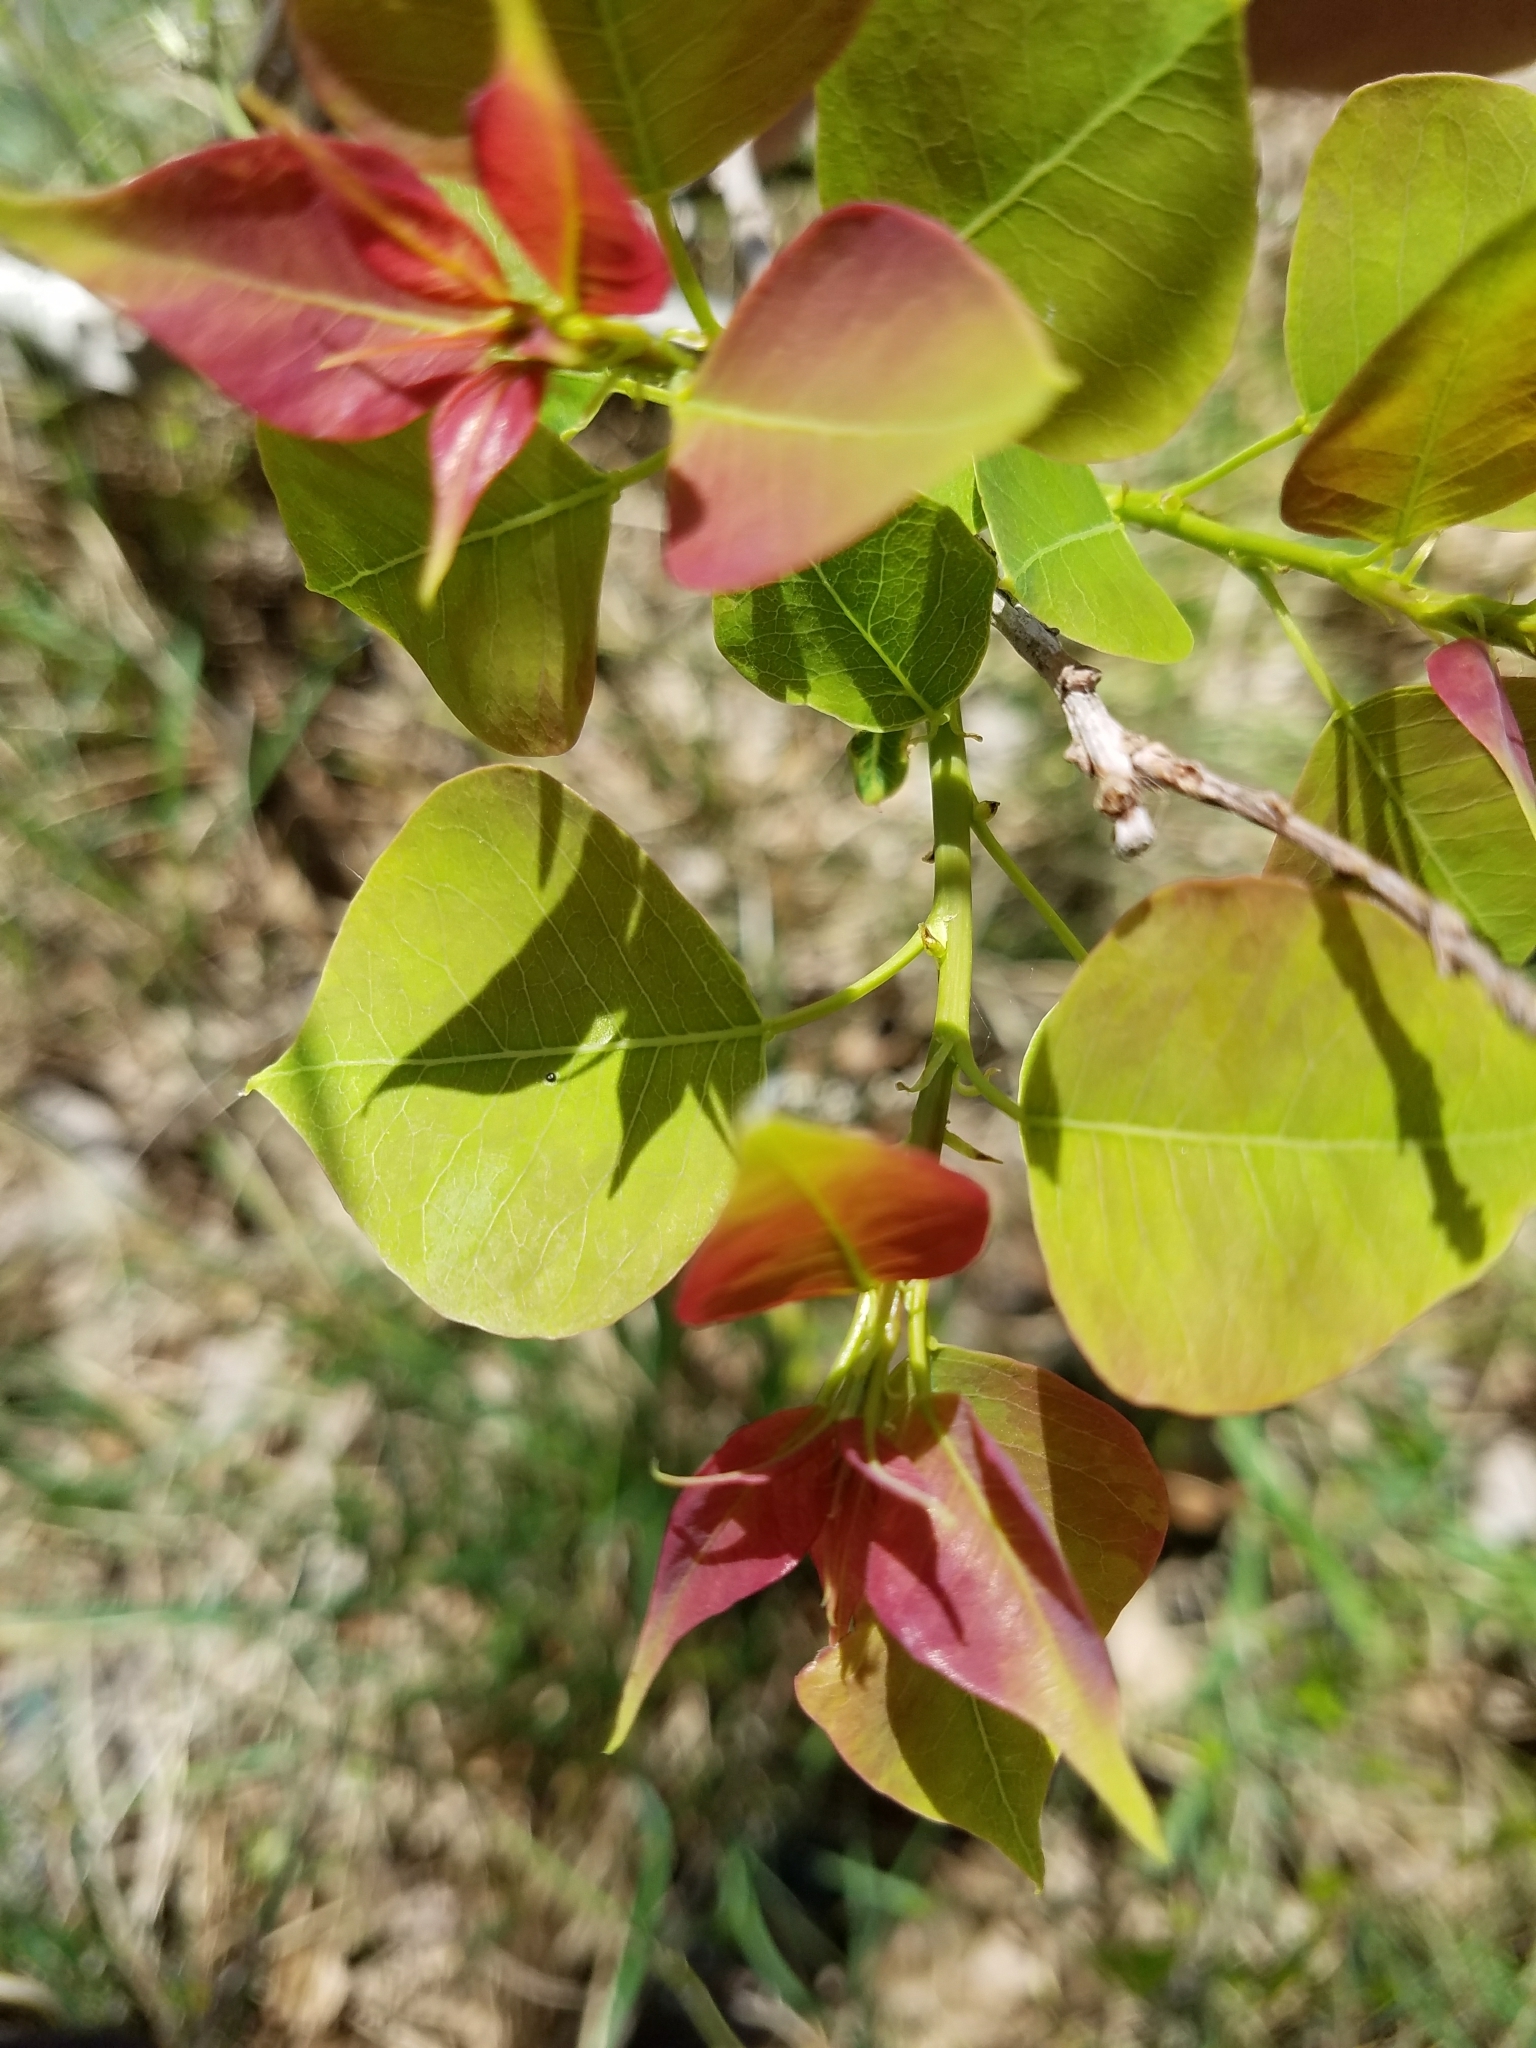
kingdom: Plantae
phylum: Tracheophyta
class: Magnoliopsida
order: Malpighiales
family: Euphorbiaceae
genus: Triadica
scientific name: Triadica sebifera
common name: Chinese tallow
